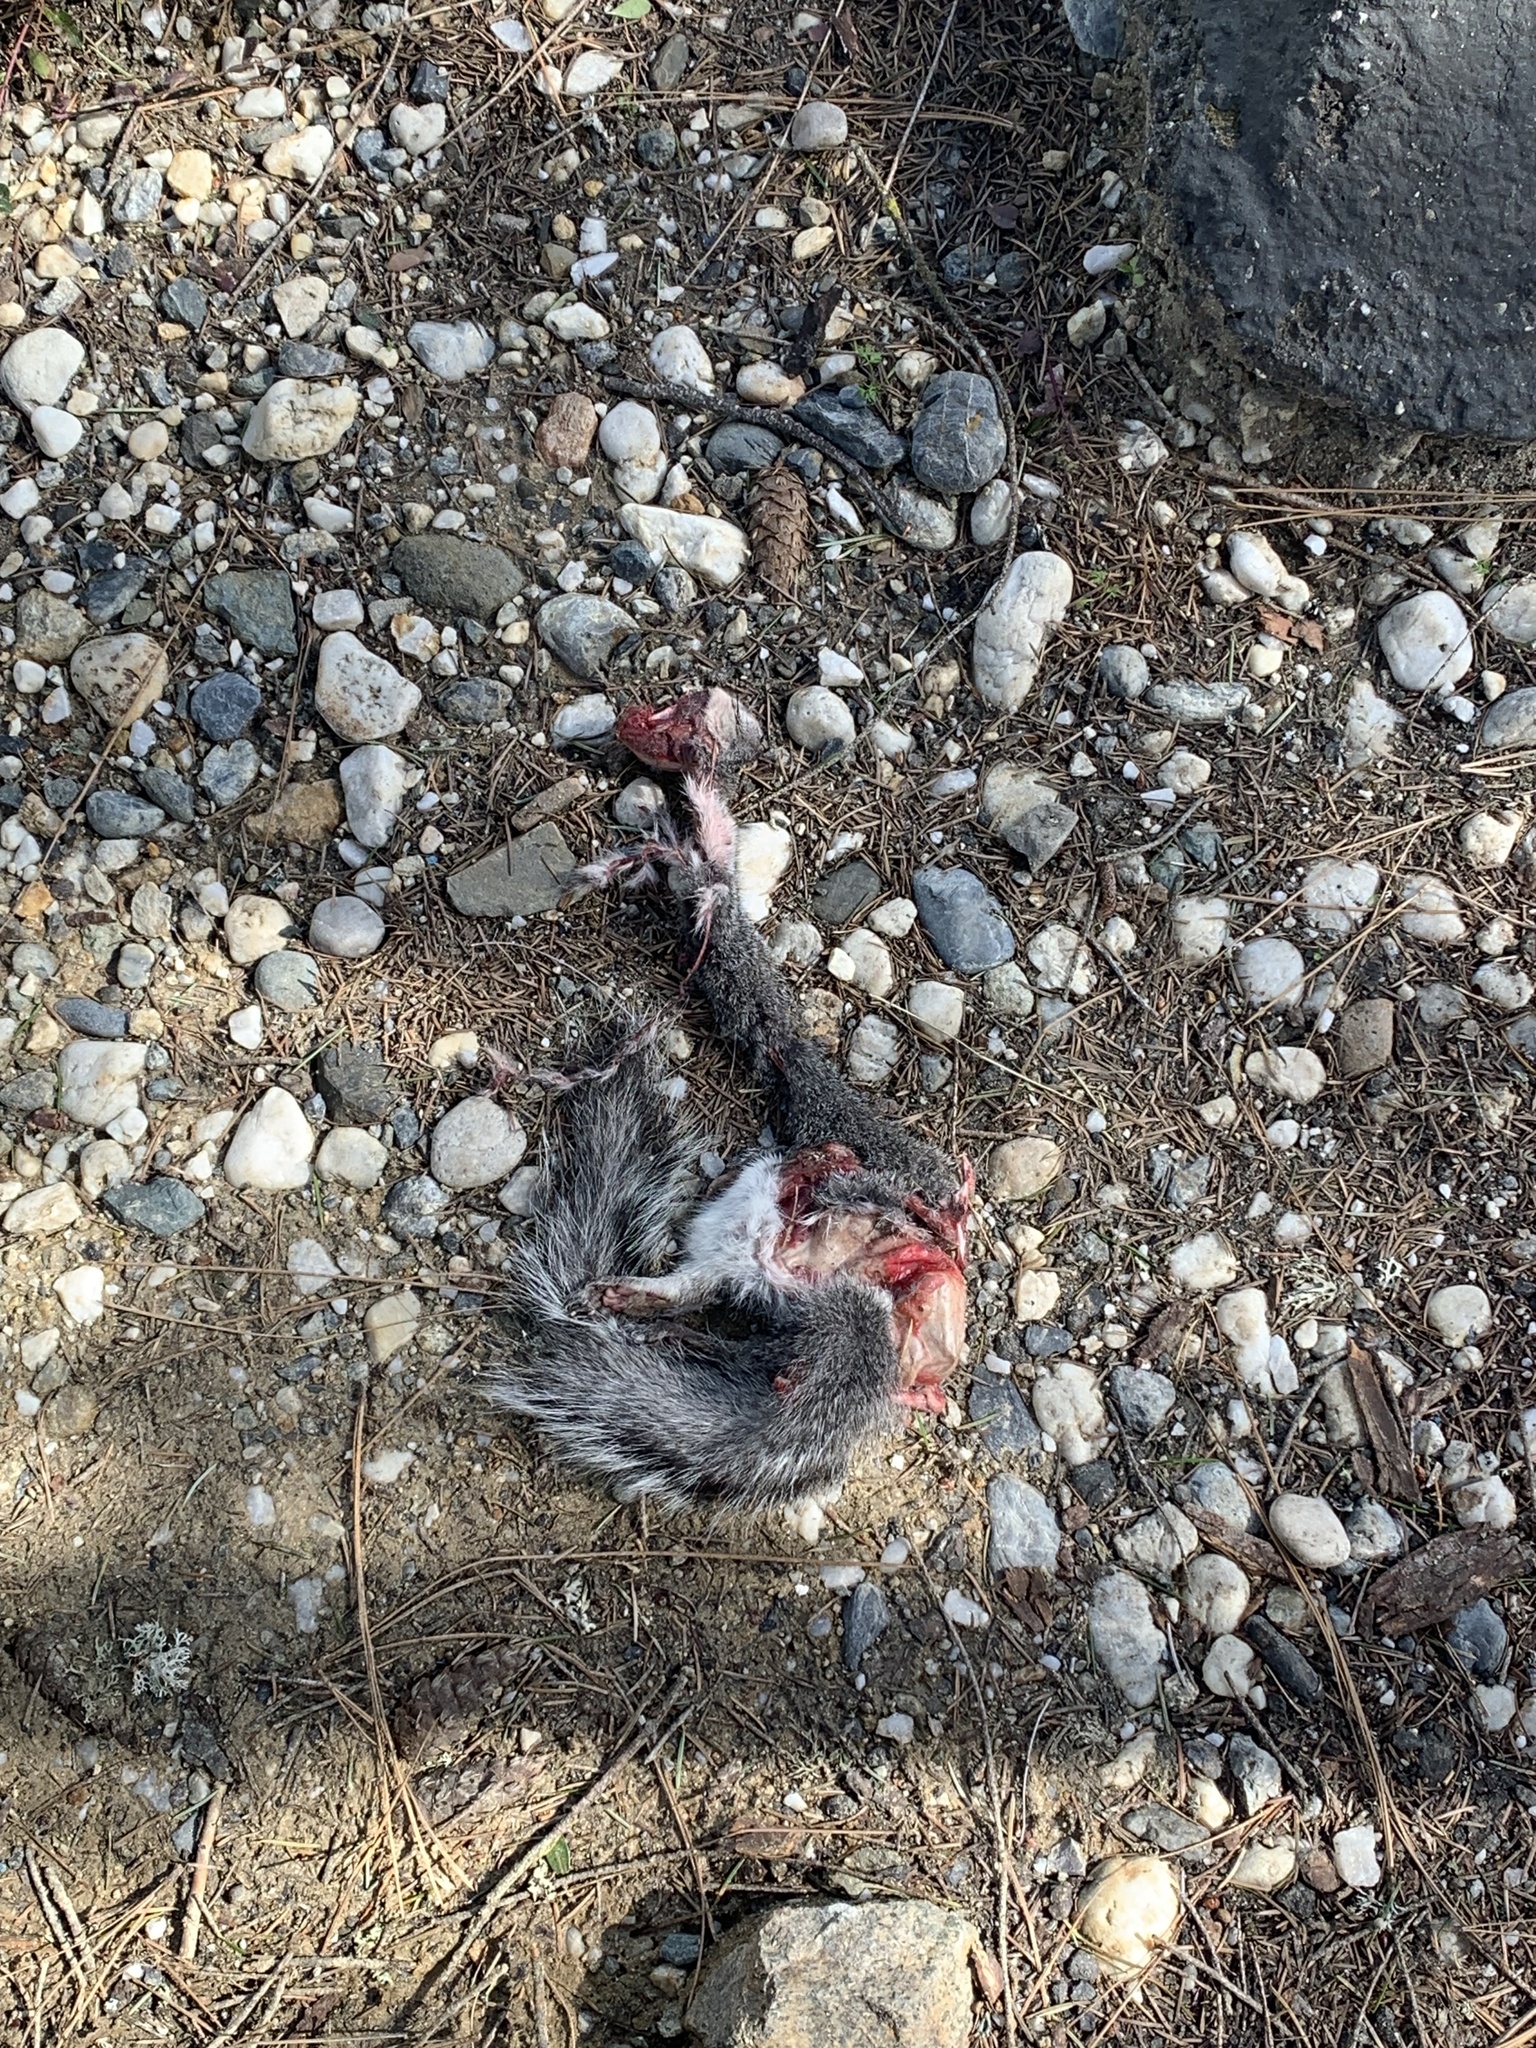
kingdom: Animalia
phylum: Chordata
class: Mammalia
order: Rodentia
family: Sciuridae
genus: Sciurus
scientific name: Sciurus griseus
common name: Western gray squirrel
